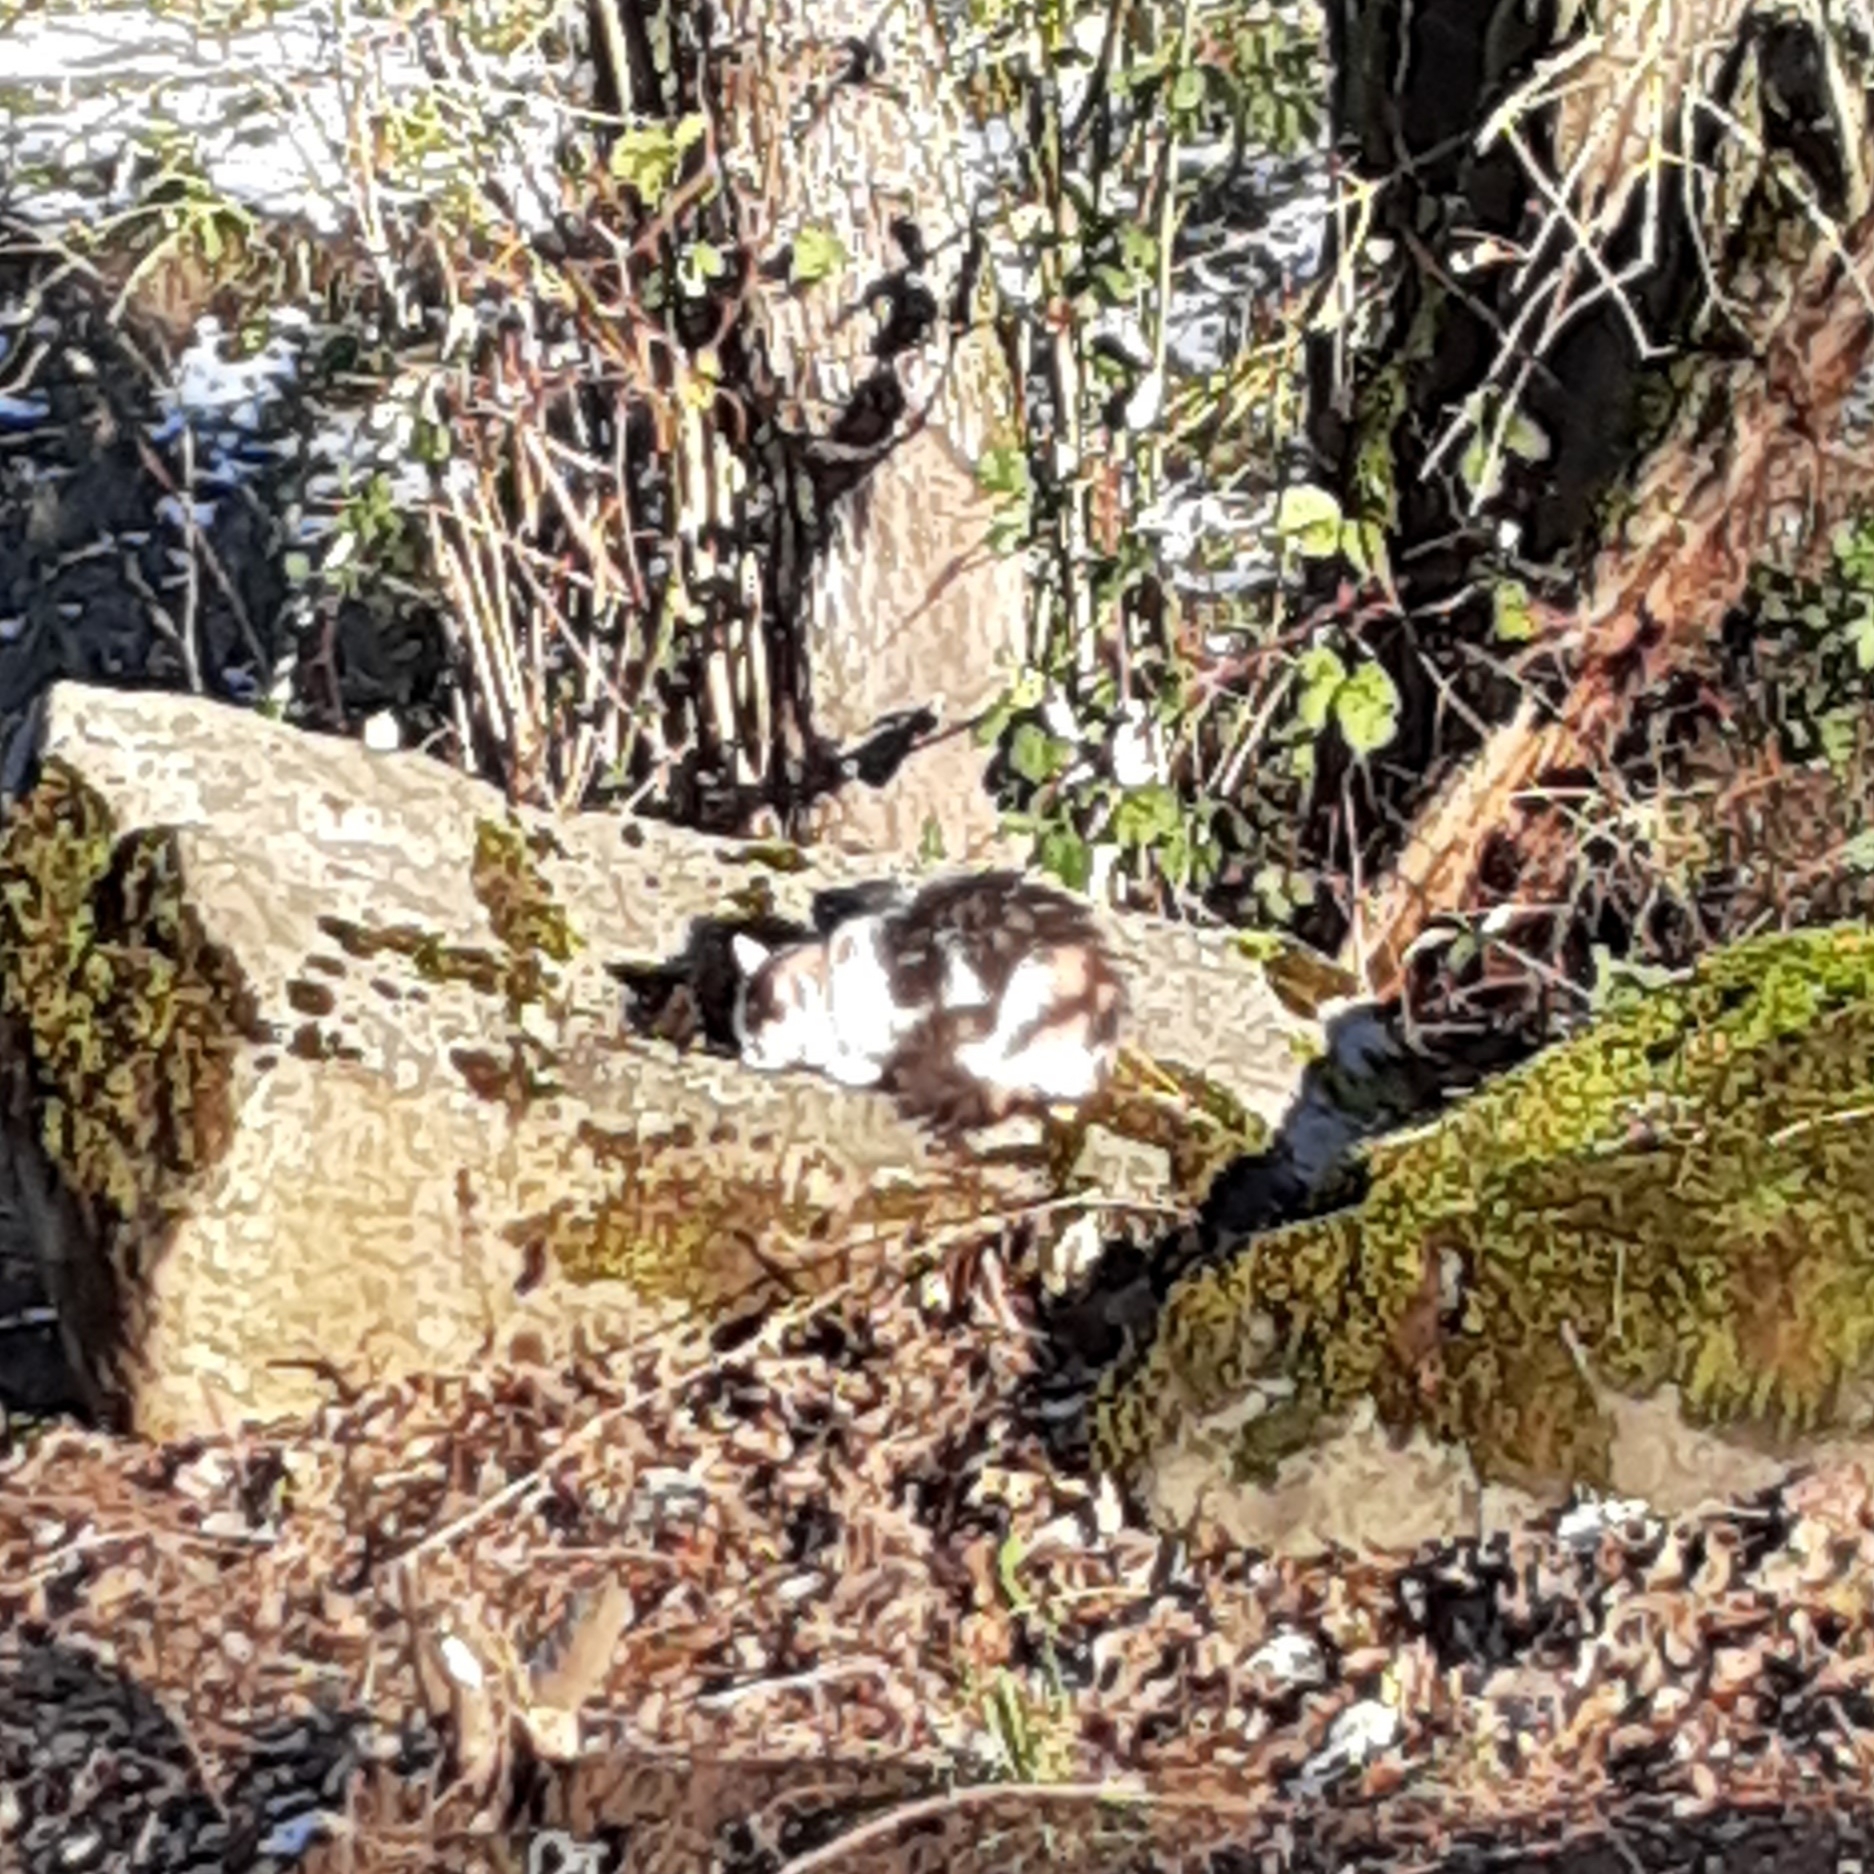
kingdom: Animalia
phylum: Chordata
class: Mammalia
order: Carnivora
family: Felidae
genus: Felis
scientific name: Felis catus
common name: Domestic cat
